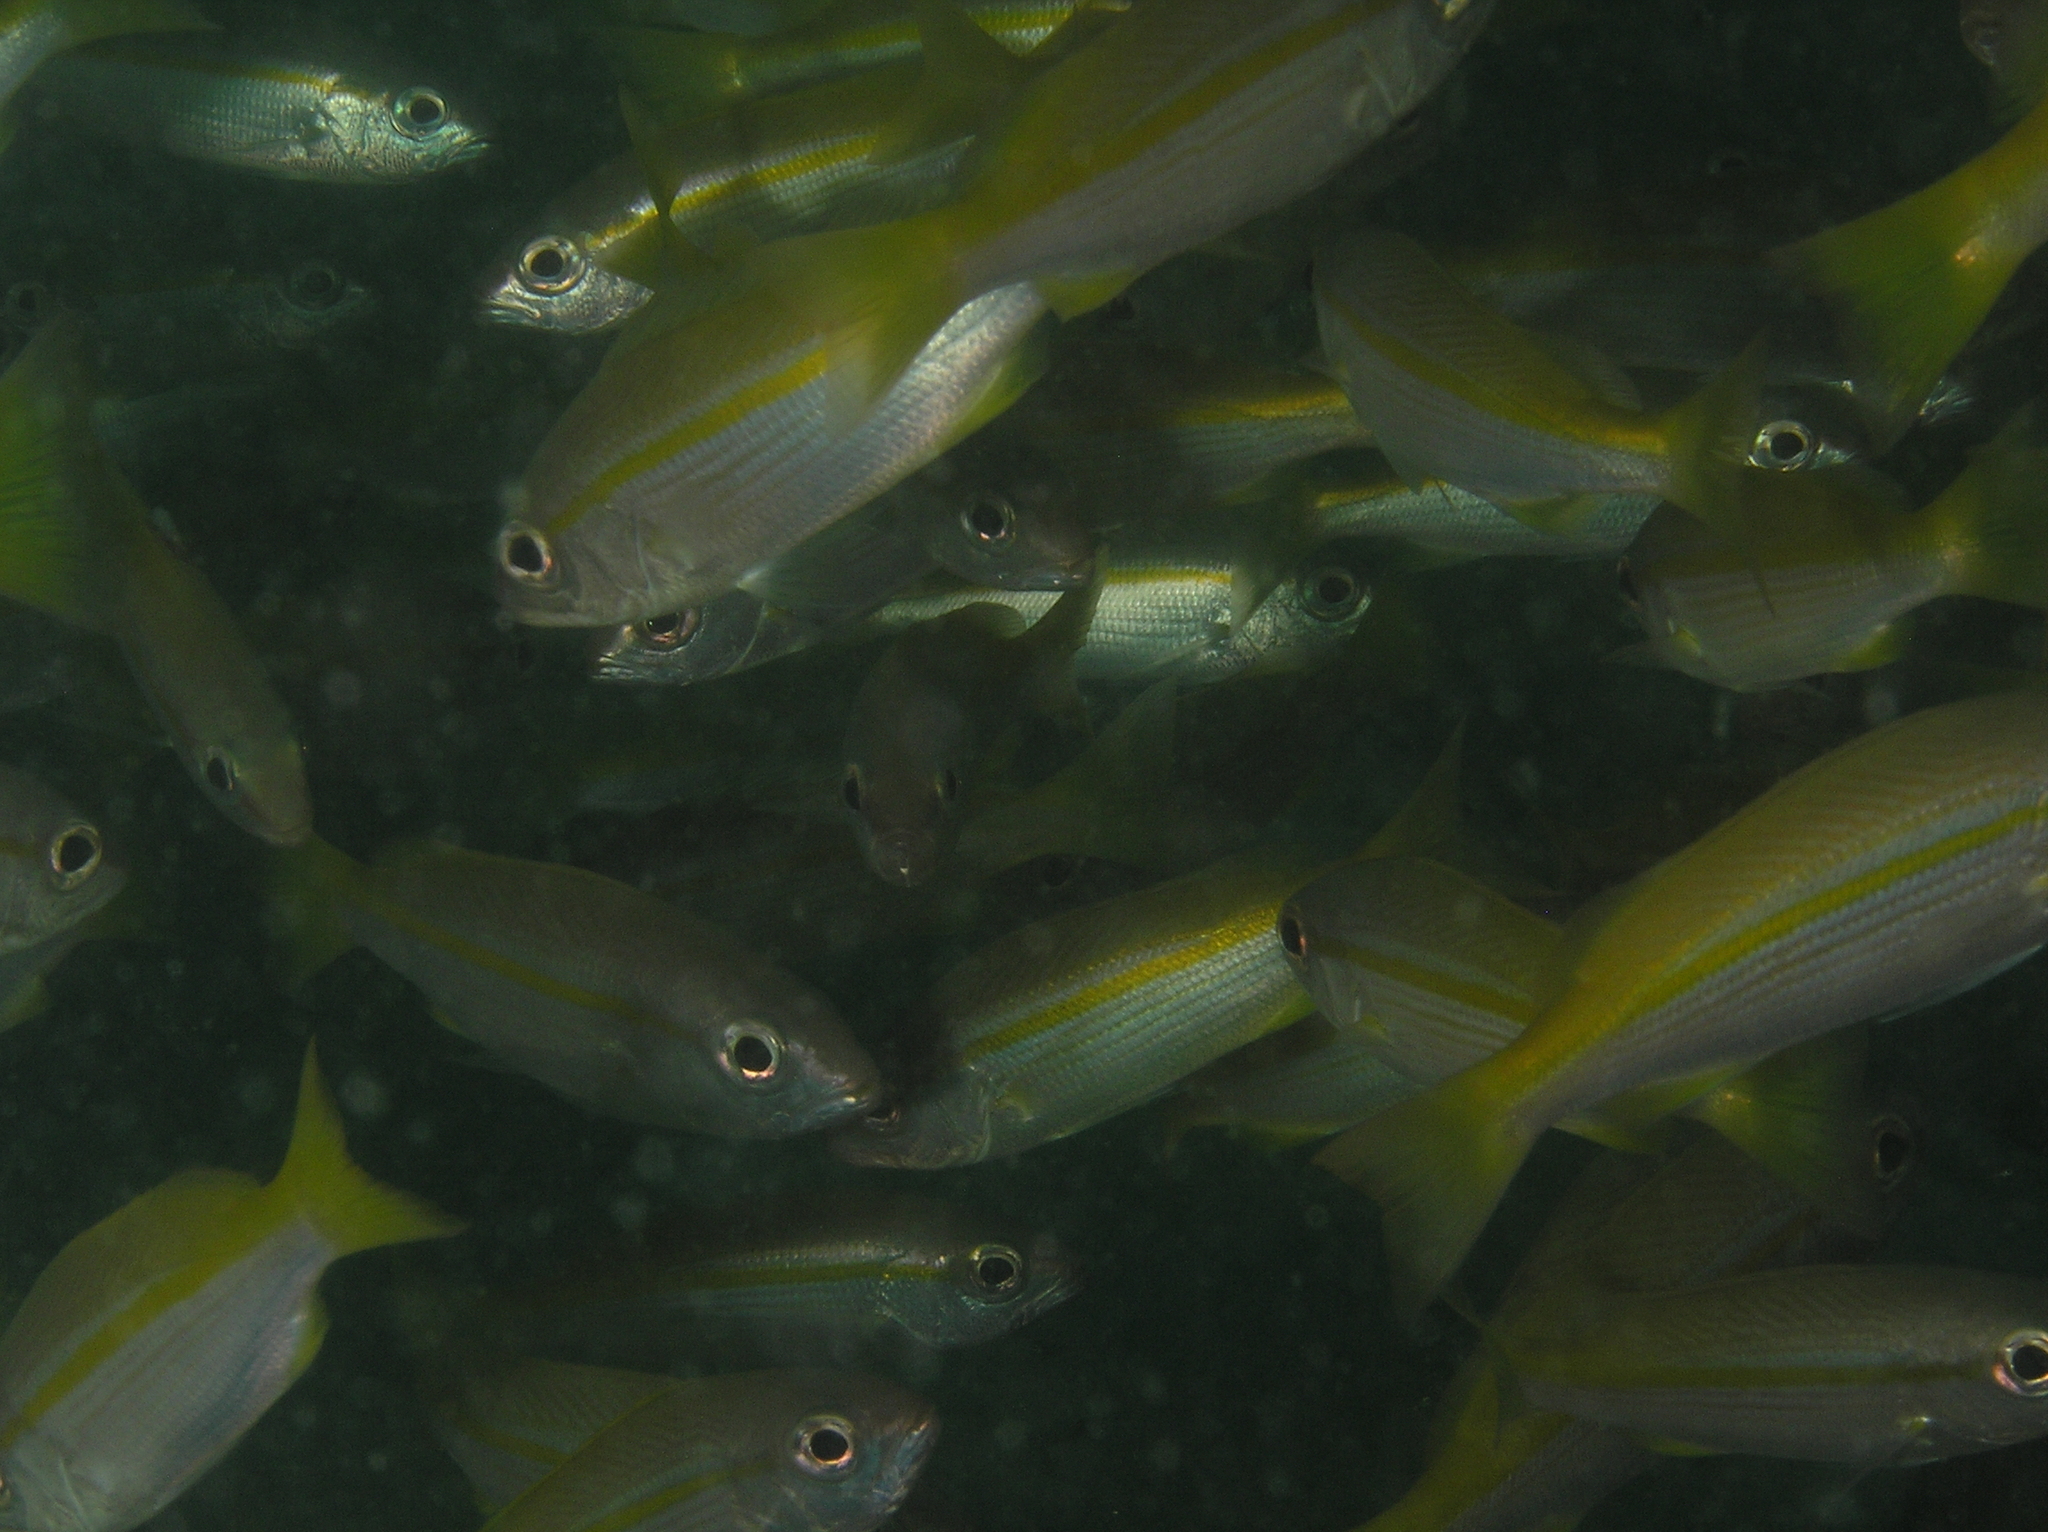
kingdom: Animalia
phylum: Chordata
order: Perciformes
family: Lutjanidae
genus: Lutjanus
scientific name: Lutjanus lutjanus
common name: Bigeye snapper
